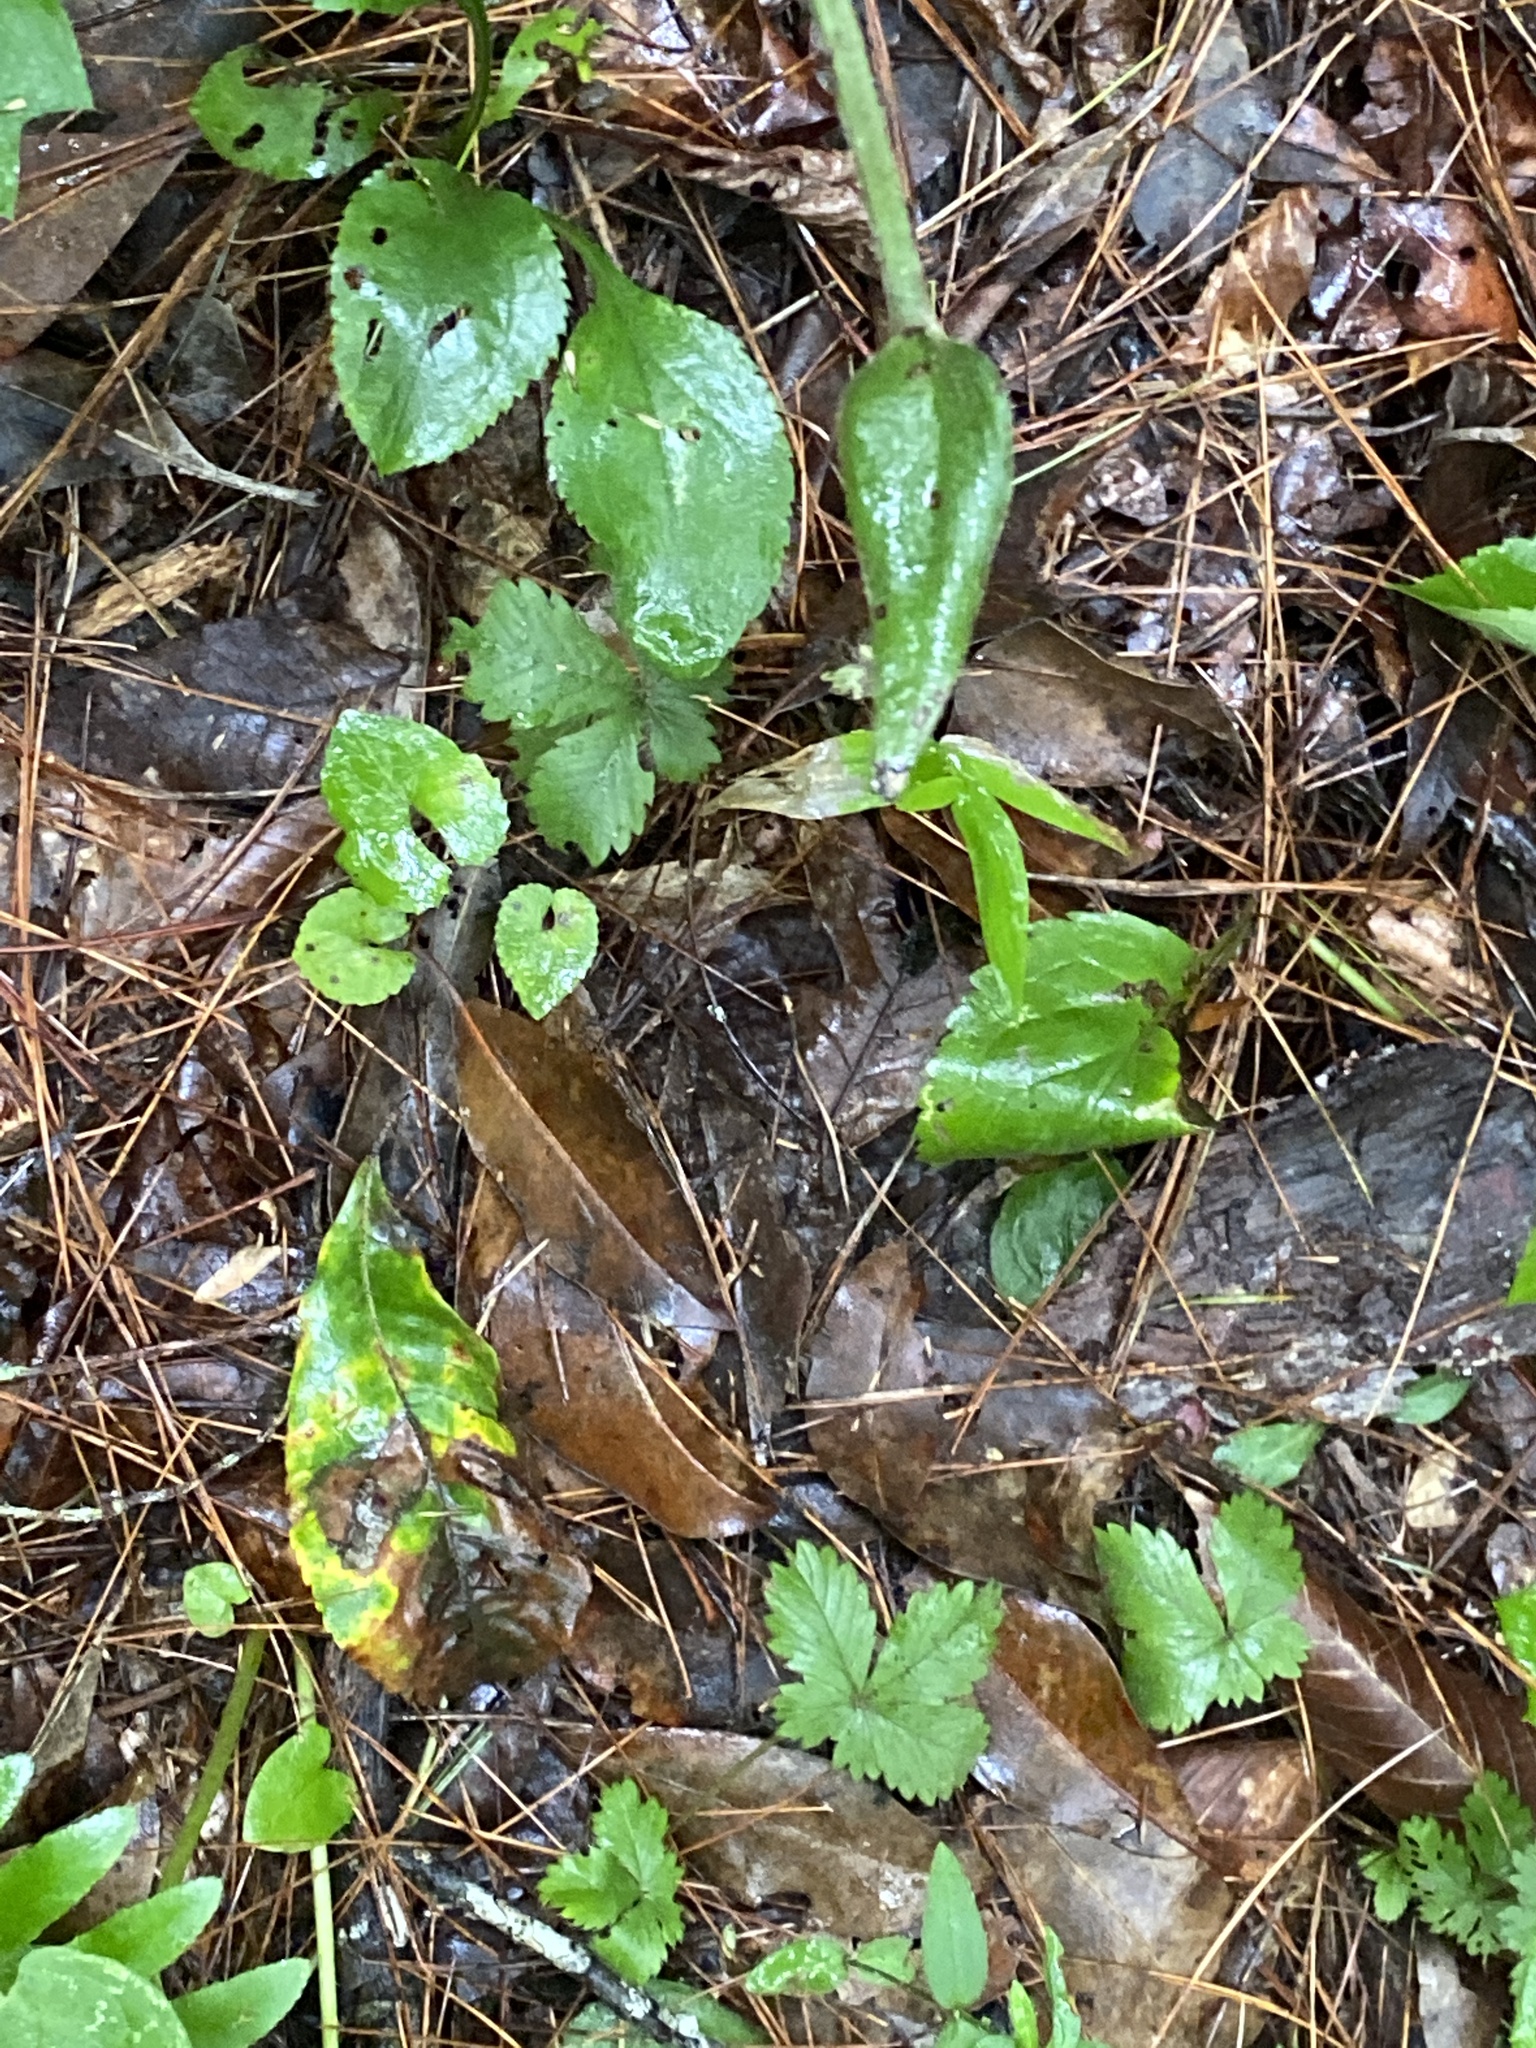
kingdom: Plantae
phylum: Tracheophyta
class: Liliopsida
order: Asparagales
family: Orchidaceae
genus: Cypripedium
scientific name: Cypripedium acaule
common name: Pink lady's-slipper
